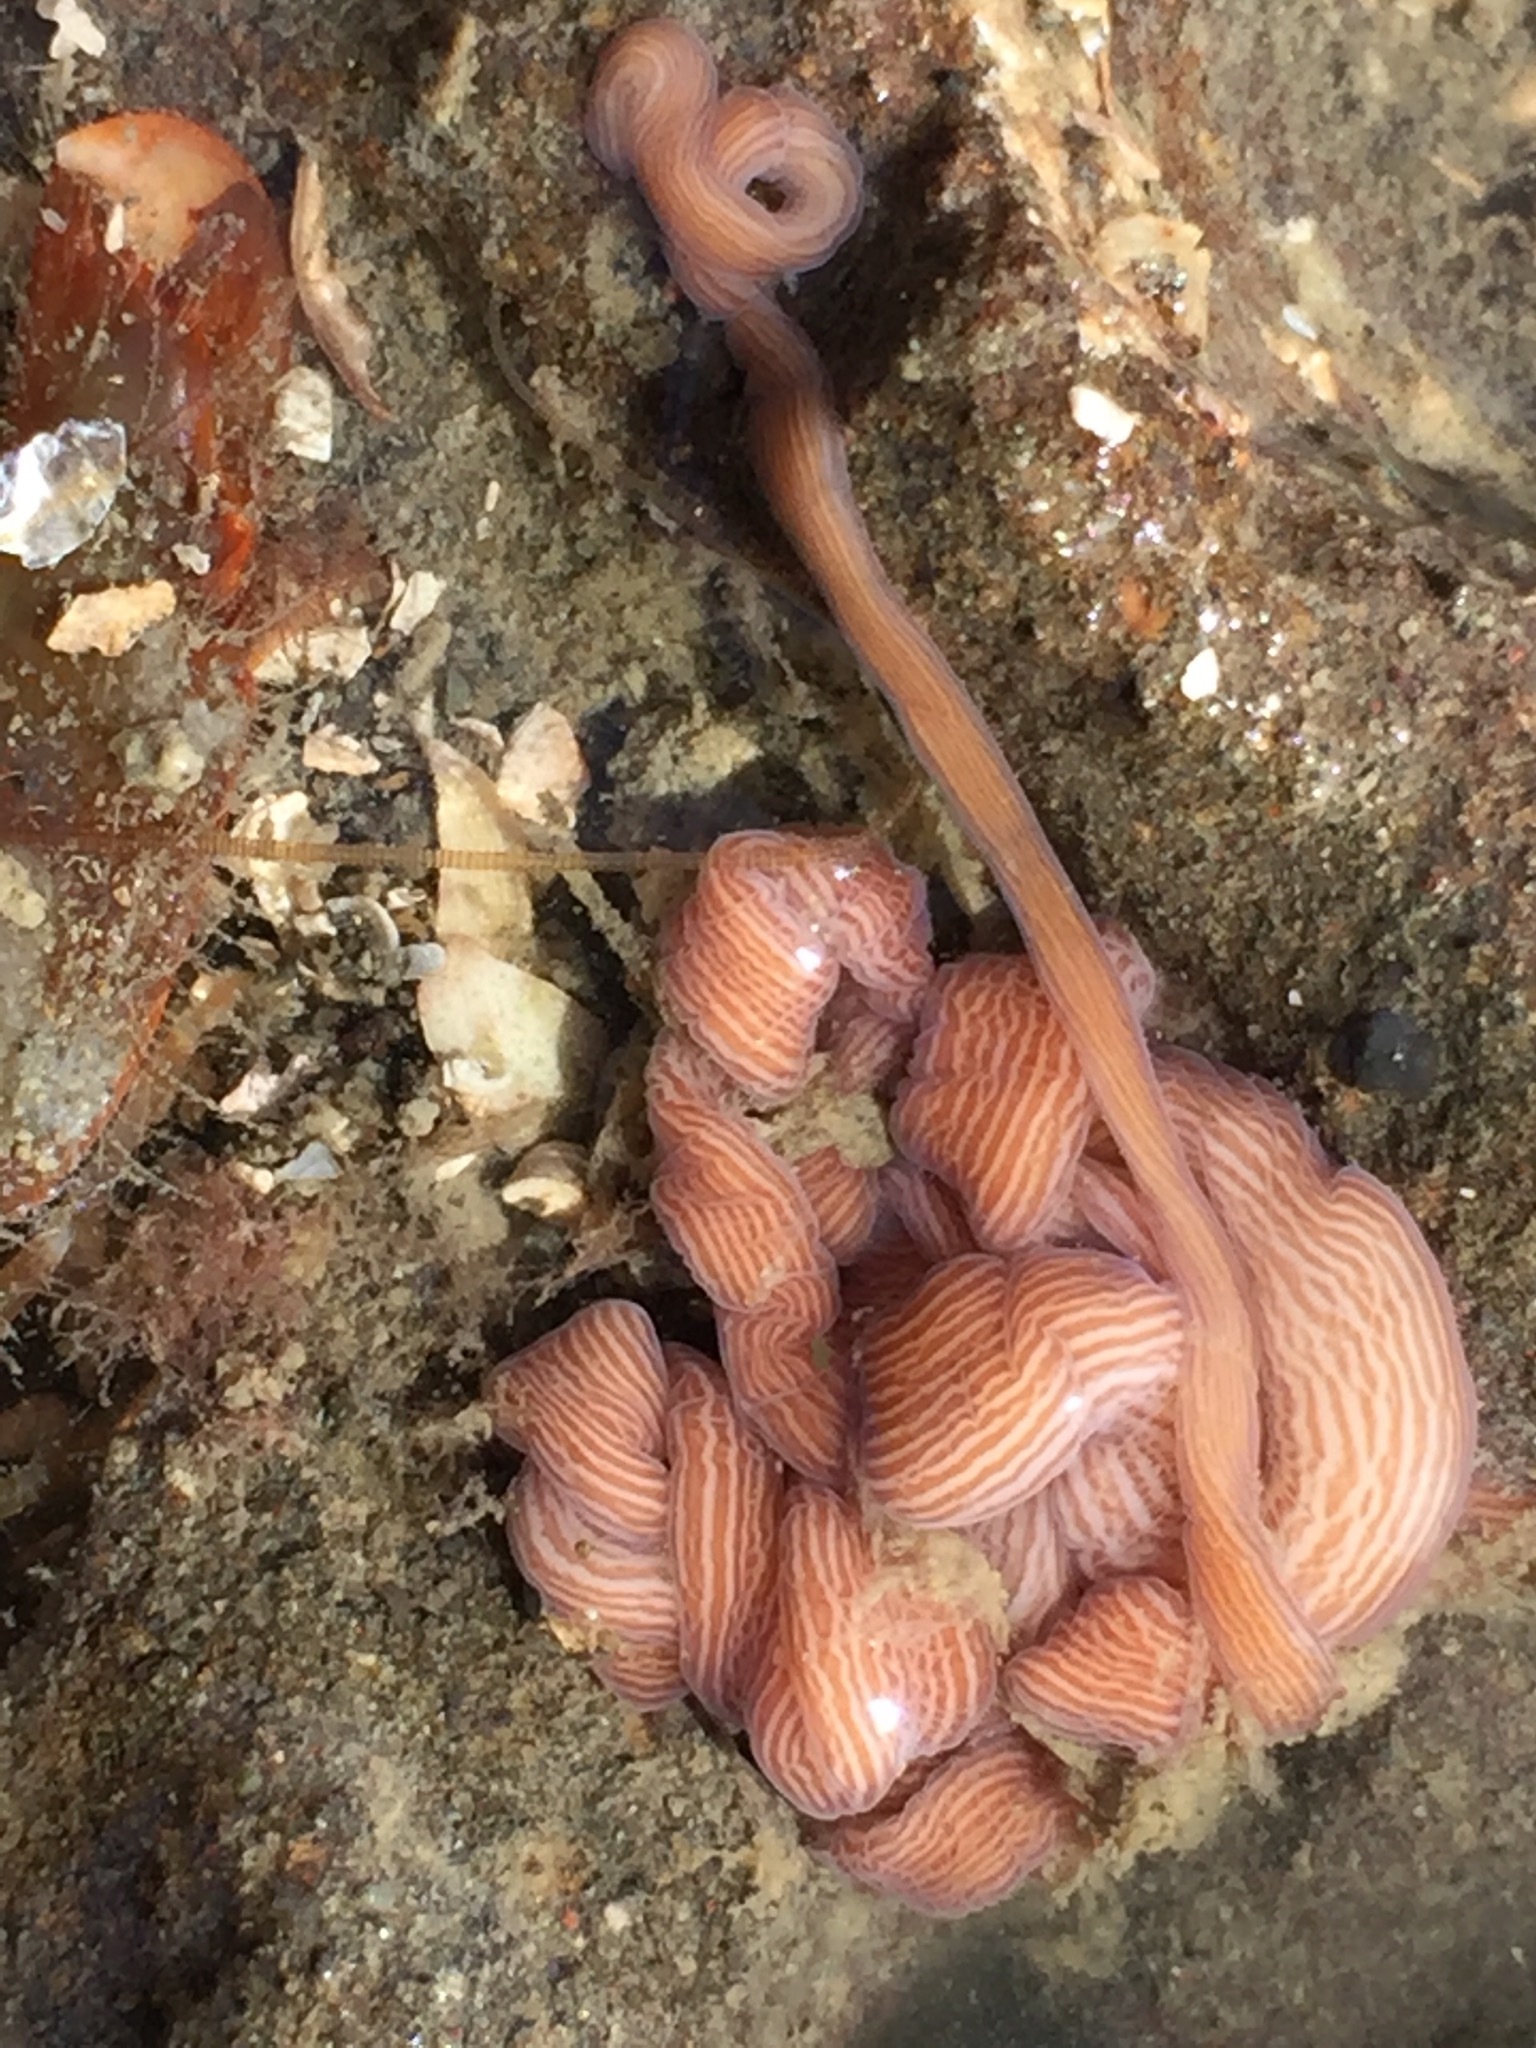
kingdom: Animalia
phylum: Nemertea
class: Pilidiophora
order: Heteronemertea
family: Valenciniidae
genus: Baseodiscus
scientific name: Baseodiscus delineatus
